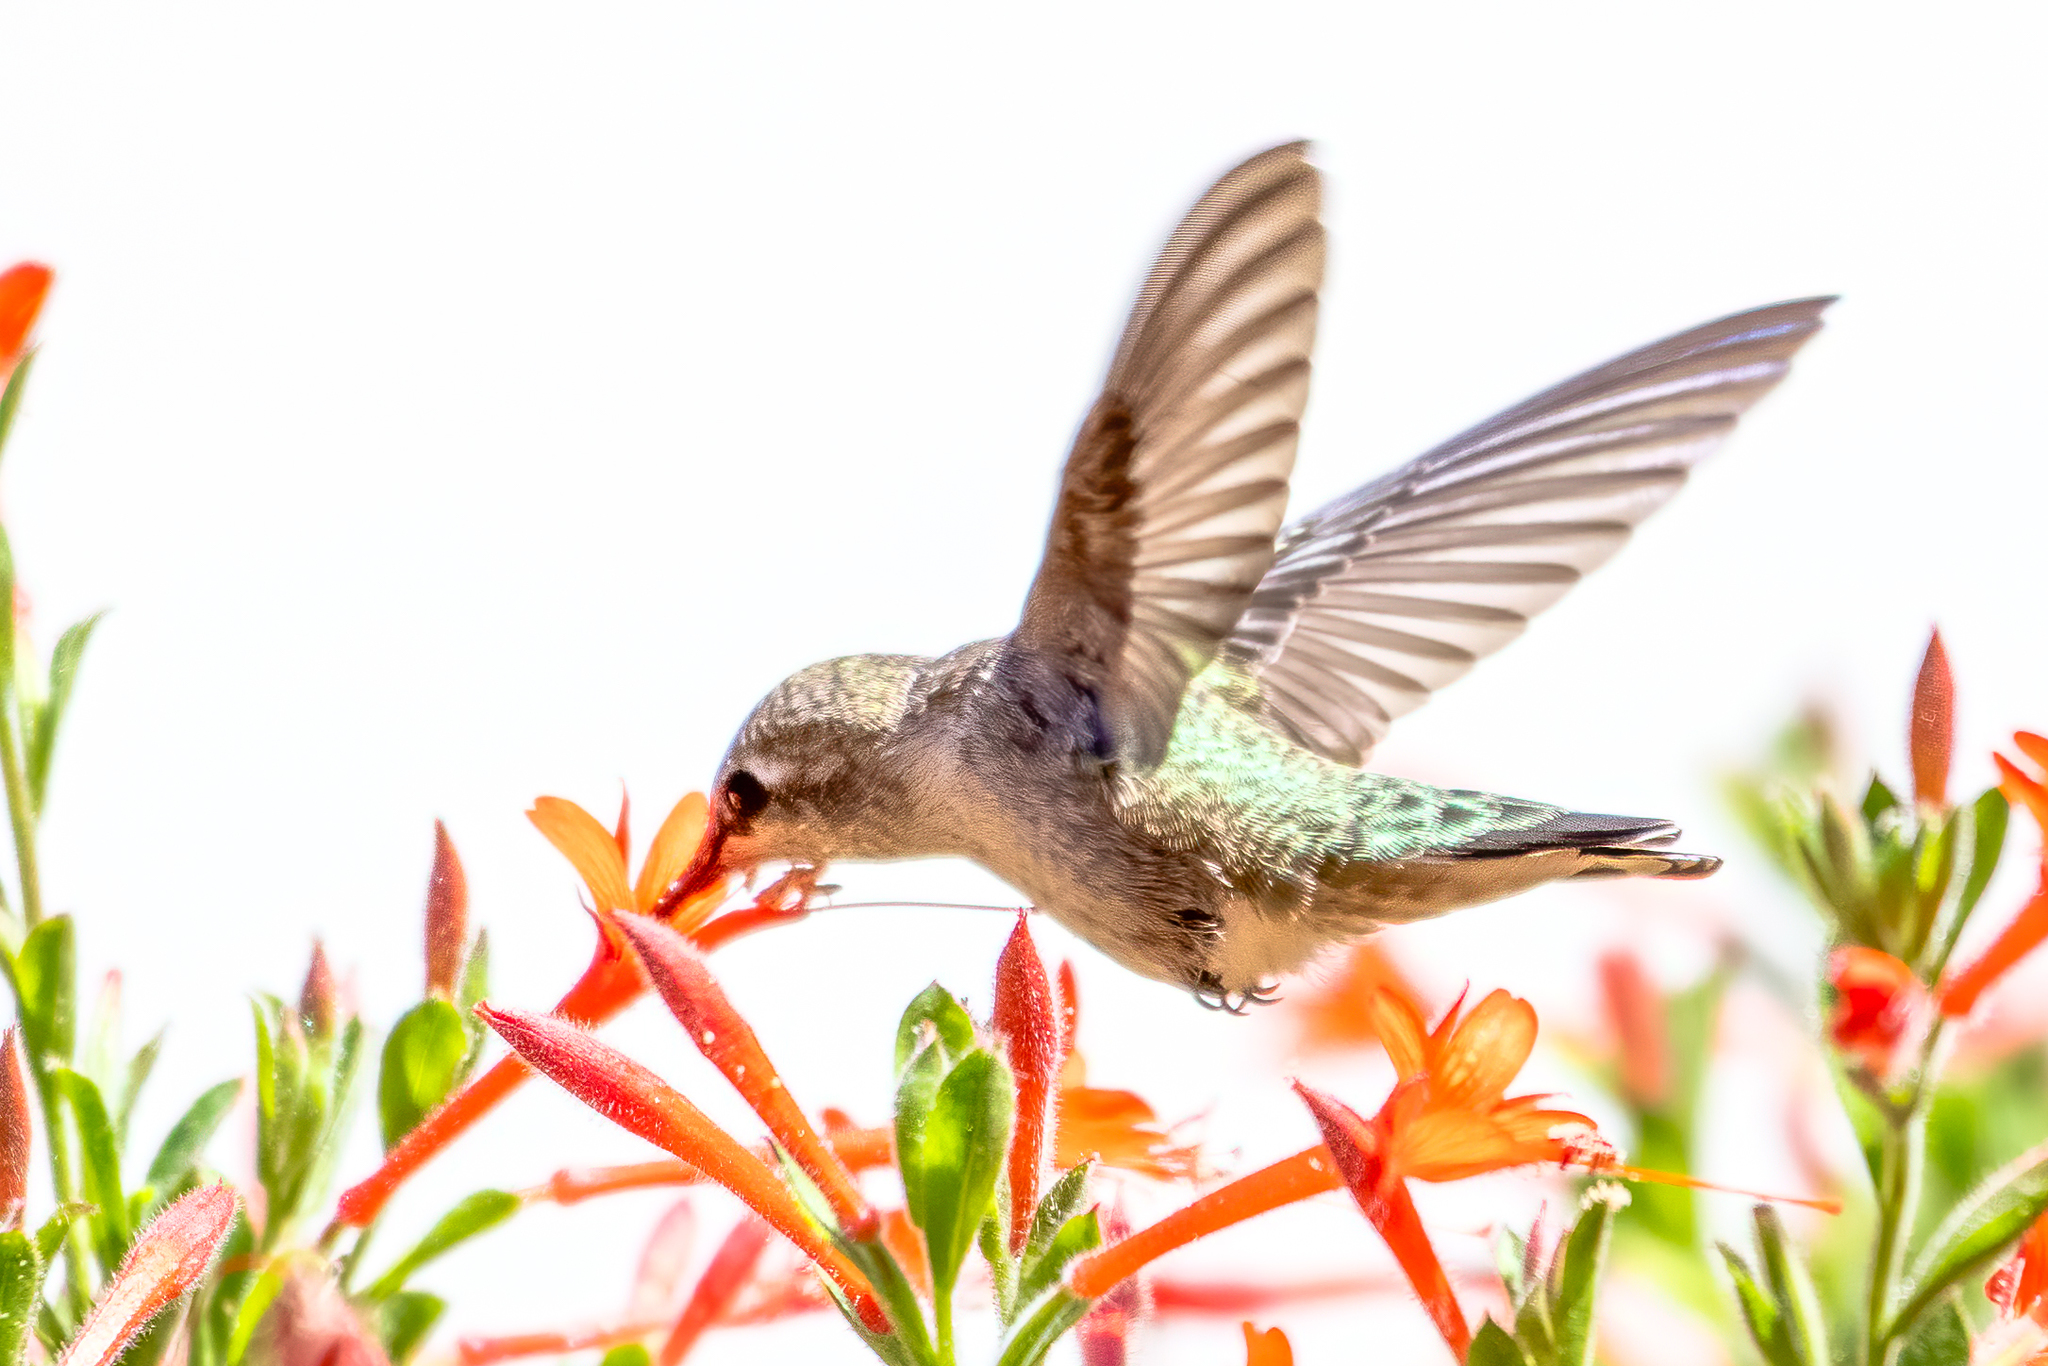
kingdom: Animalia
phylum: Chordata
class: Aves
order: Apodiformes
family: Trochilidae
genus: Calypte
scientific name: Calypte anna
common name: Anna's hummingbird
